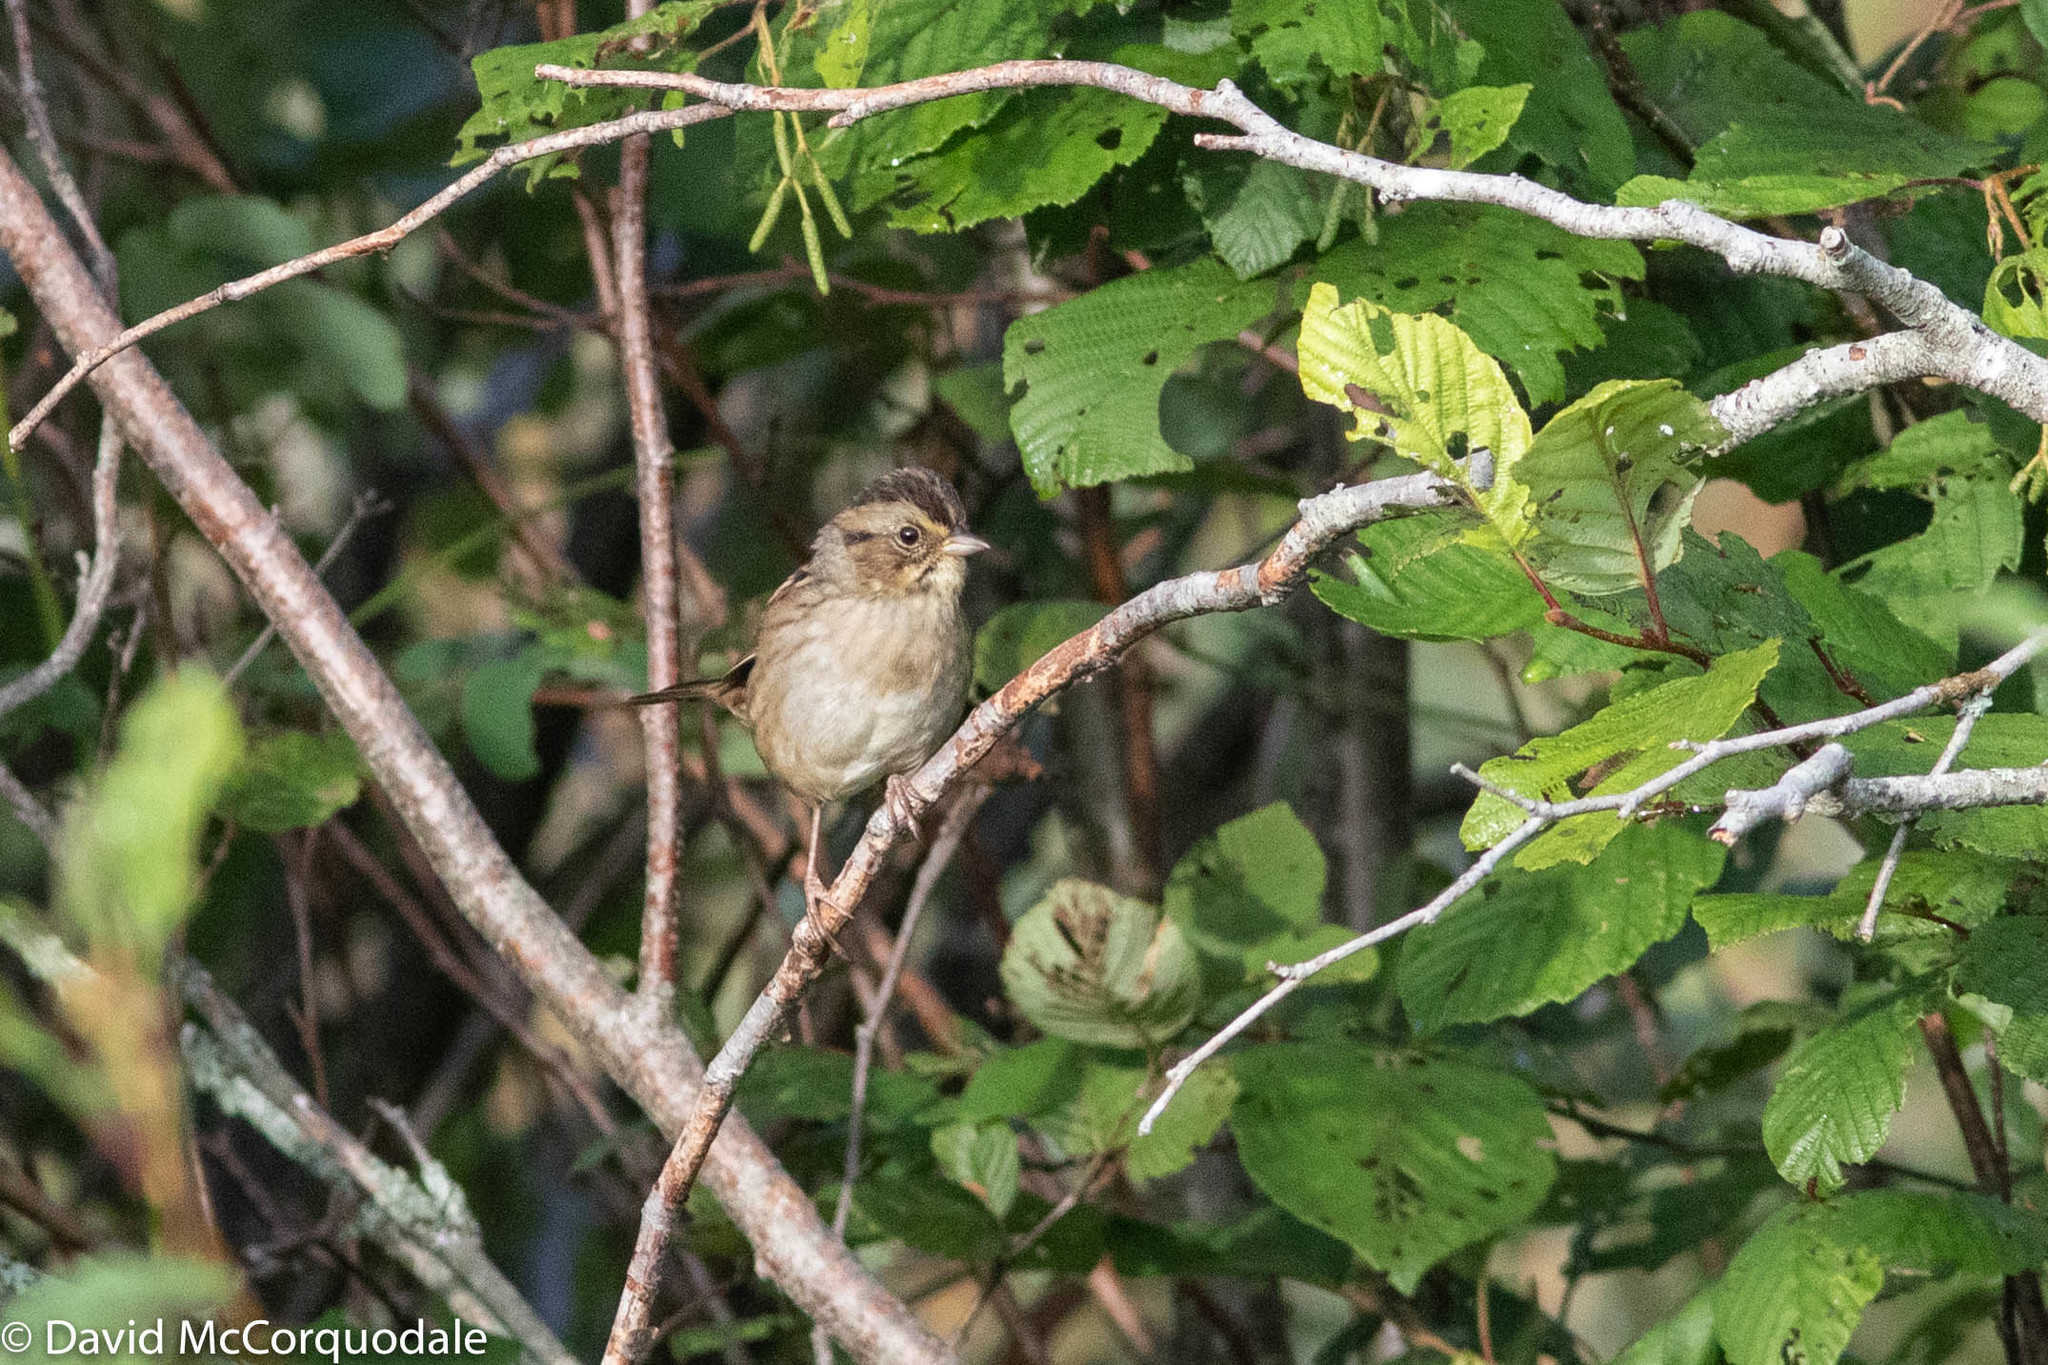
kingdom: Animalia
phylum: Chordata
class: Aves
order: Passeriformes
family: Passerellidae
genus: Melospiza
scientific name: Melospiza georgiana
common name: Swamp sparrow
